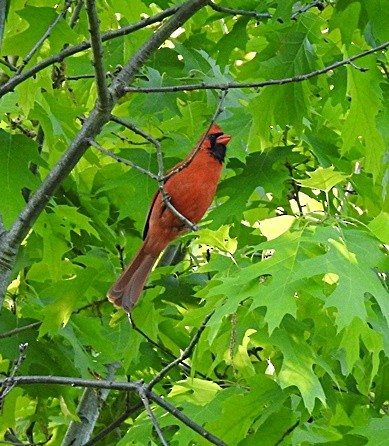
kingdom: Animalia
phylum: Chordata
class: Aves
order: Passeriformes
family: Cardinalidae
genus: Cardinalis
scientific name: Cardinalis cardinalis
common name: Northern cardinal
